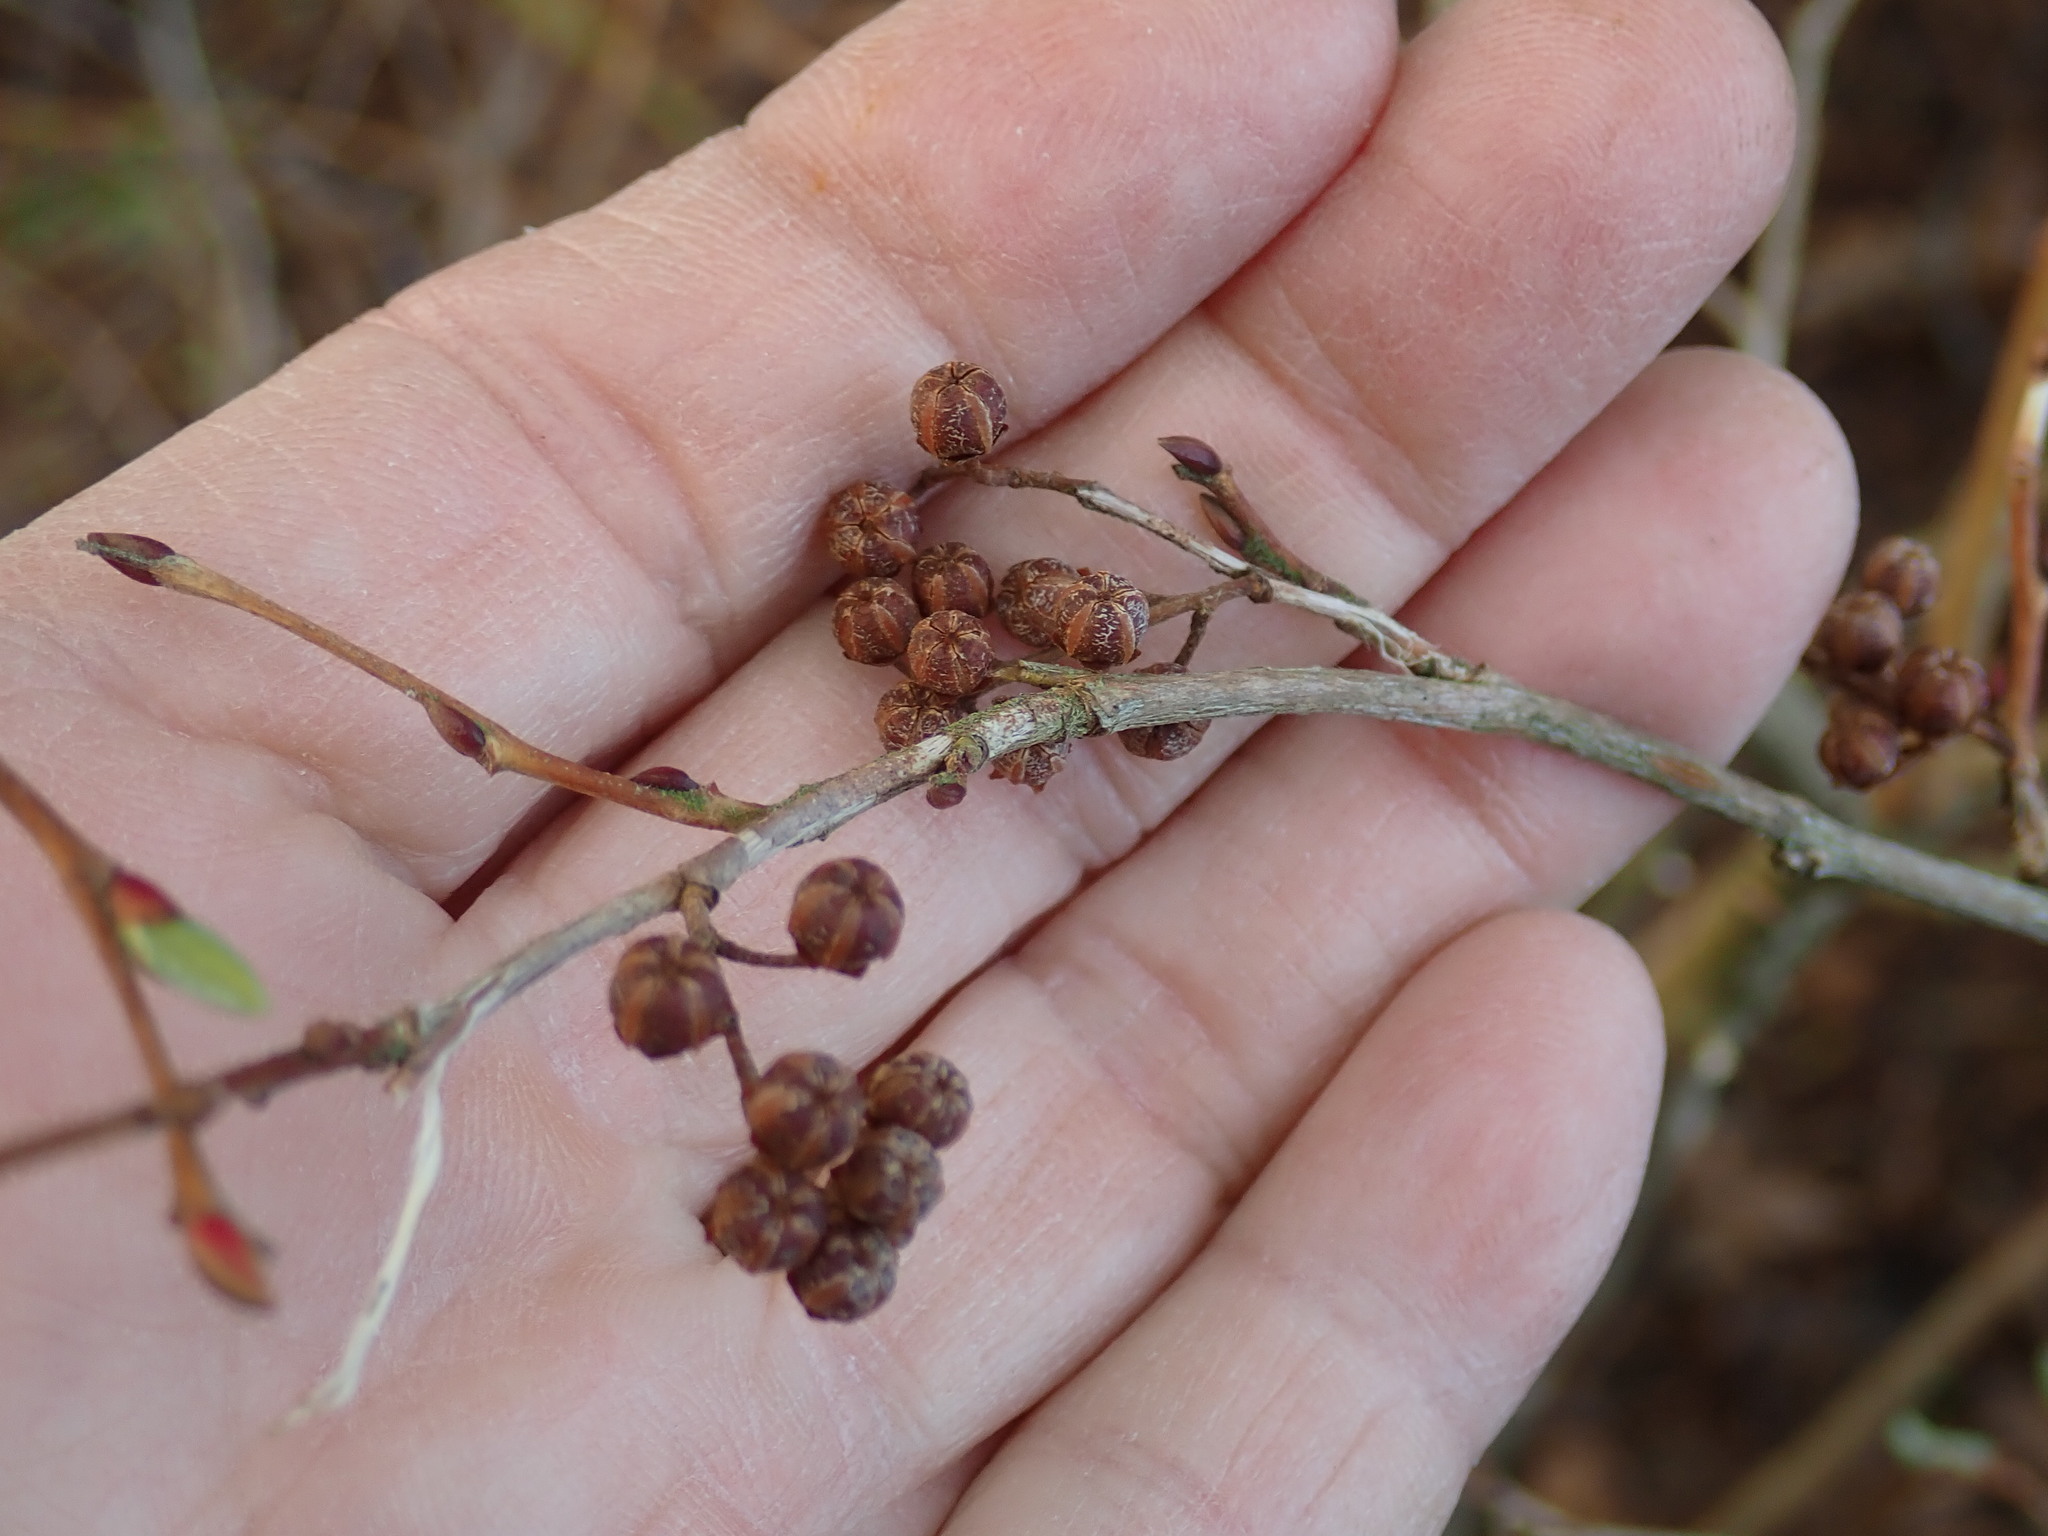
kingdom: Plantae
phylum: Tracheophyta
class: Magnoliopsida
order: Ericales
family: Ericaceae
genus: Lyonia
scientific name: Lyonia ligustrina
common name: Maleberry
